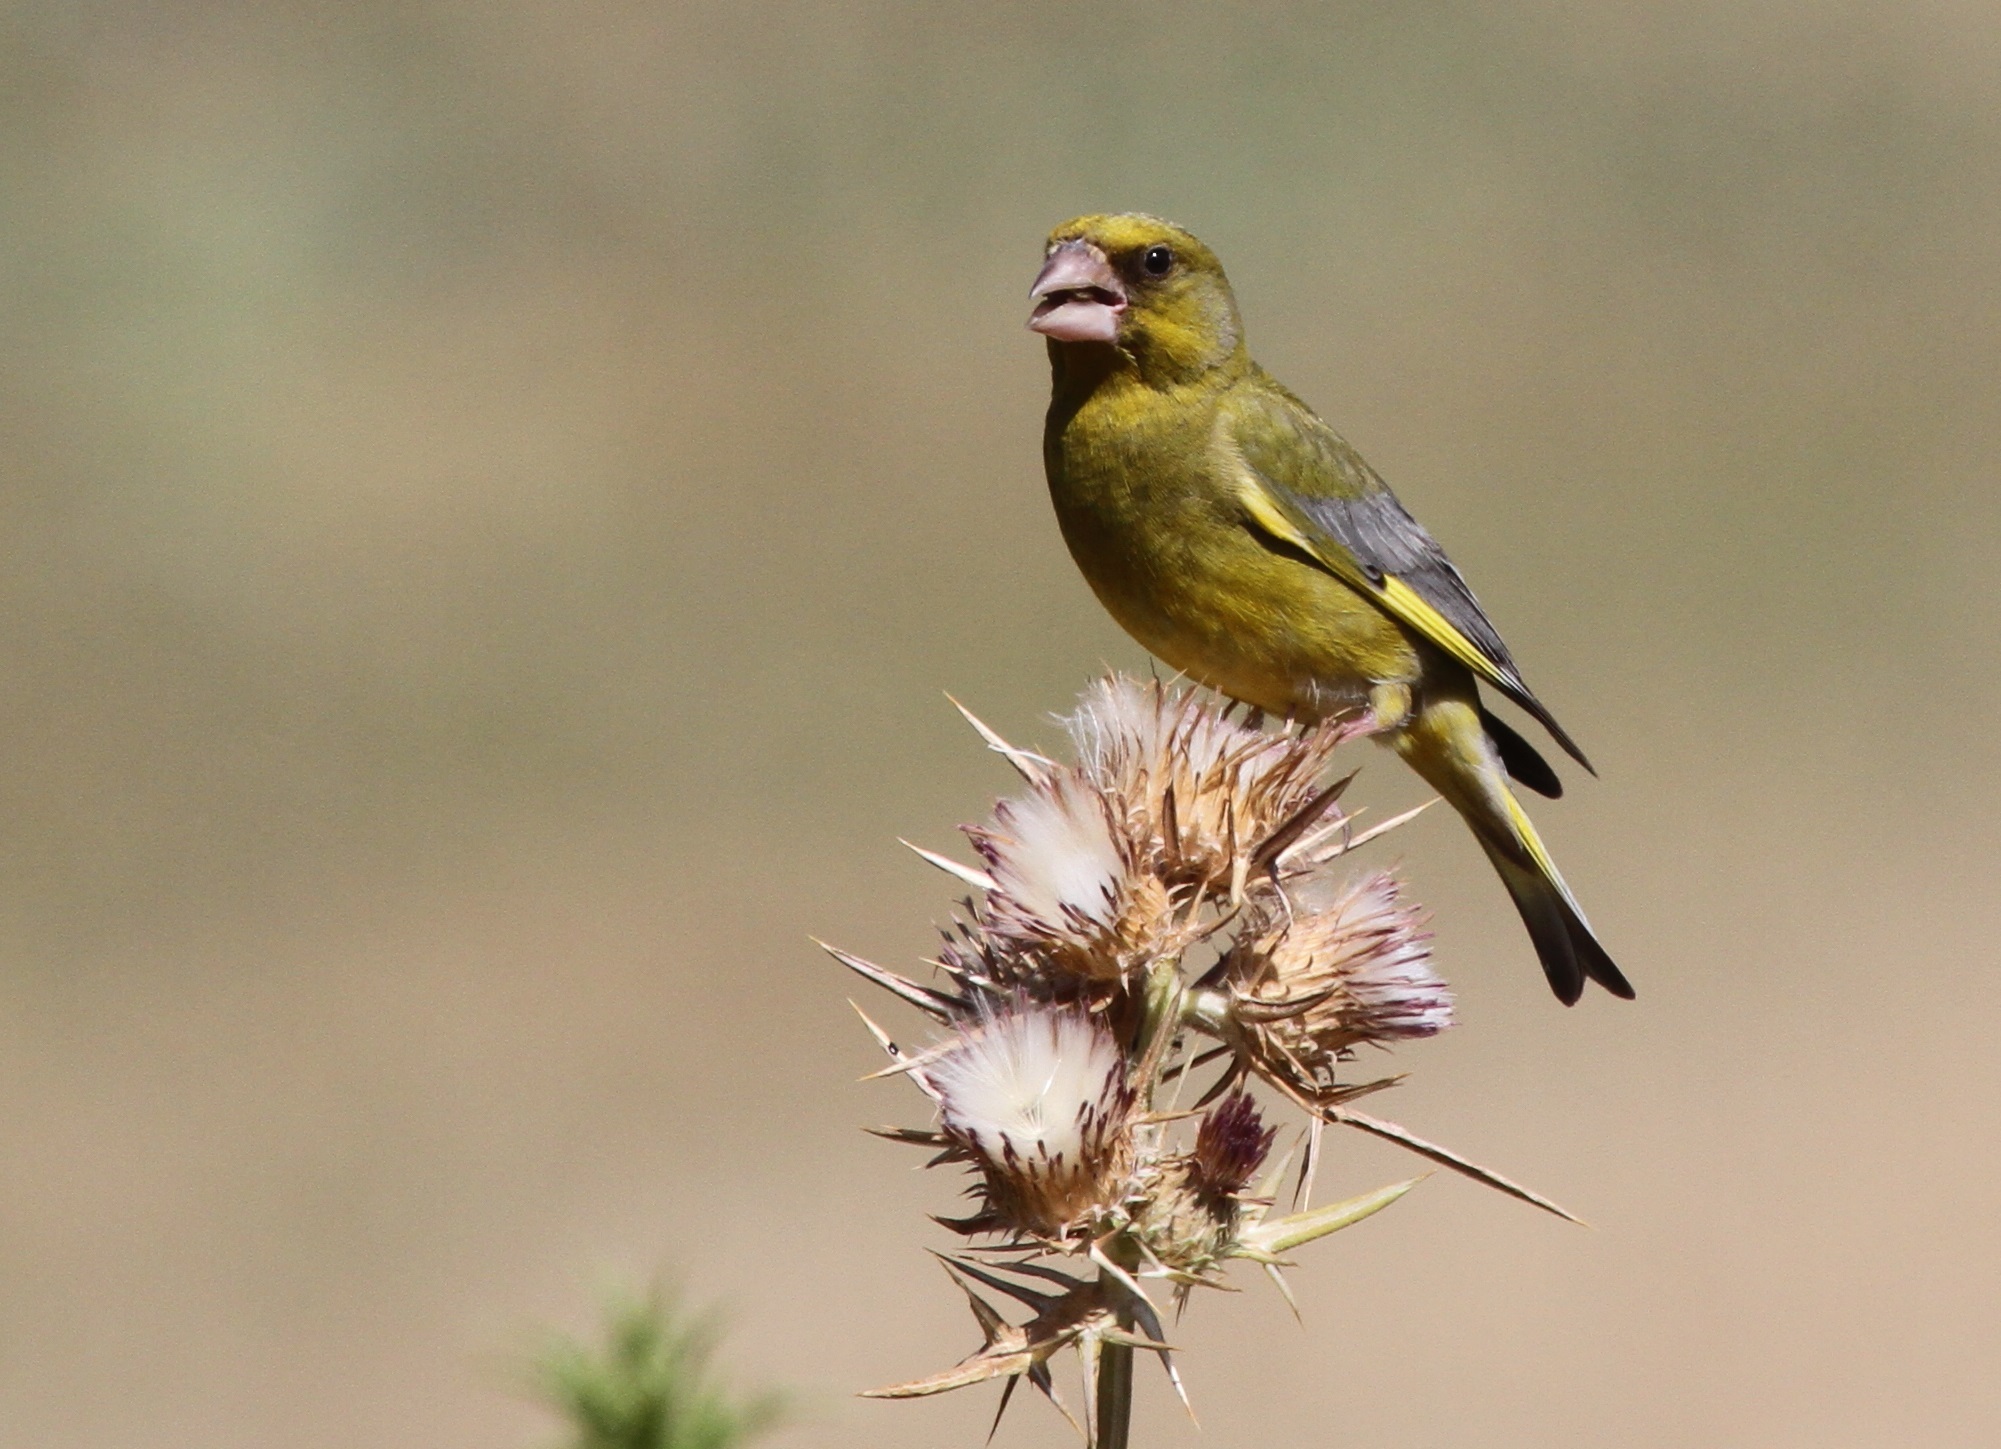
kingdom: Plantae
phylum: Tracheophyta
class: Liliopsida
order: Poales
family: Poaceae
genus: Chloris
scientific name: Chloris chloris
